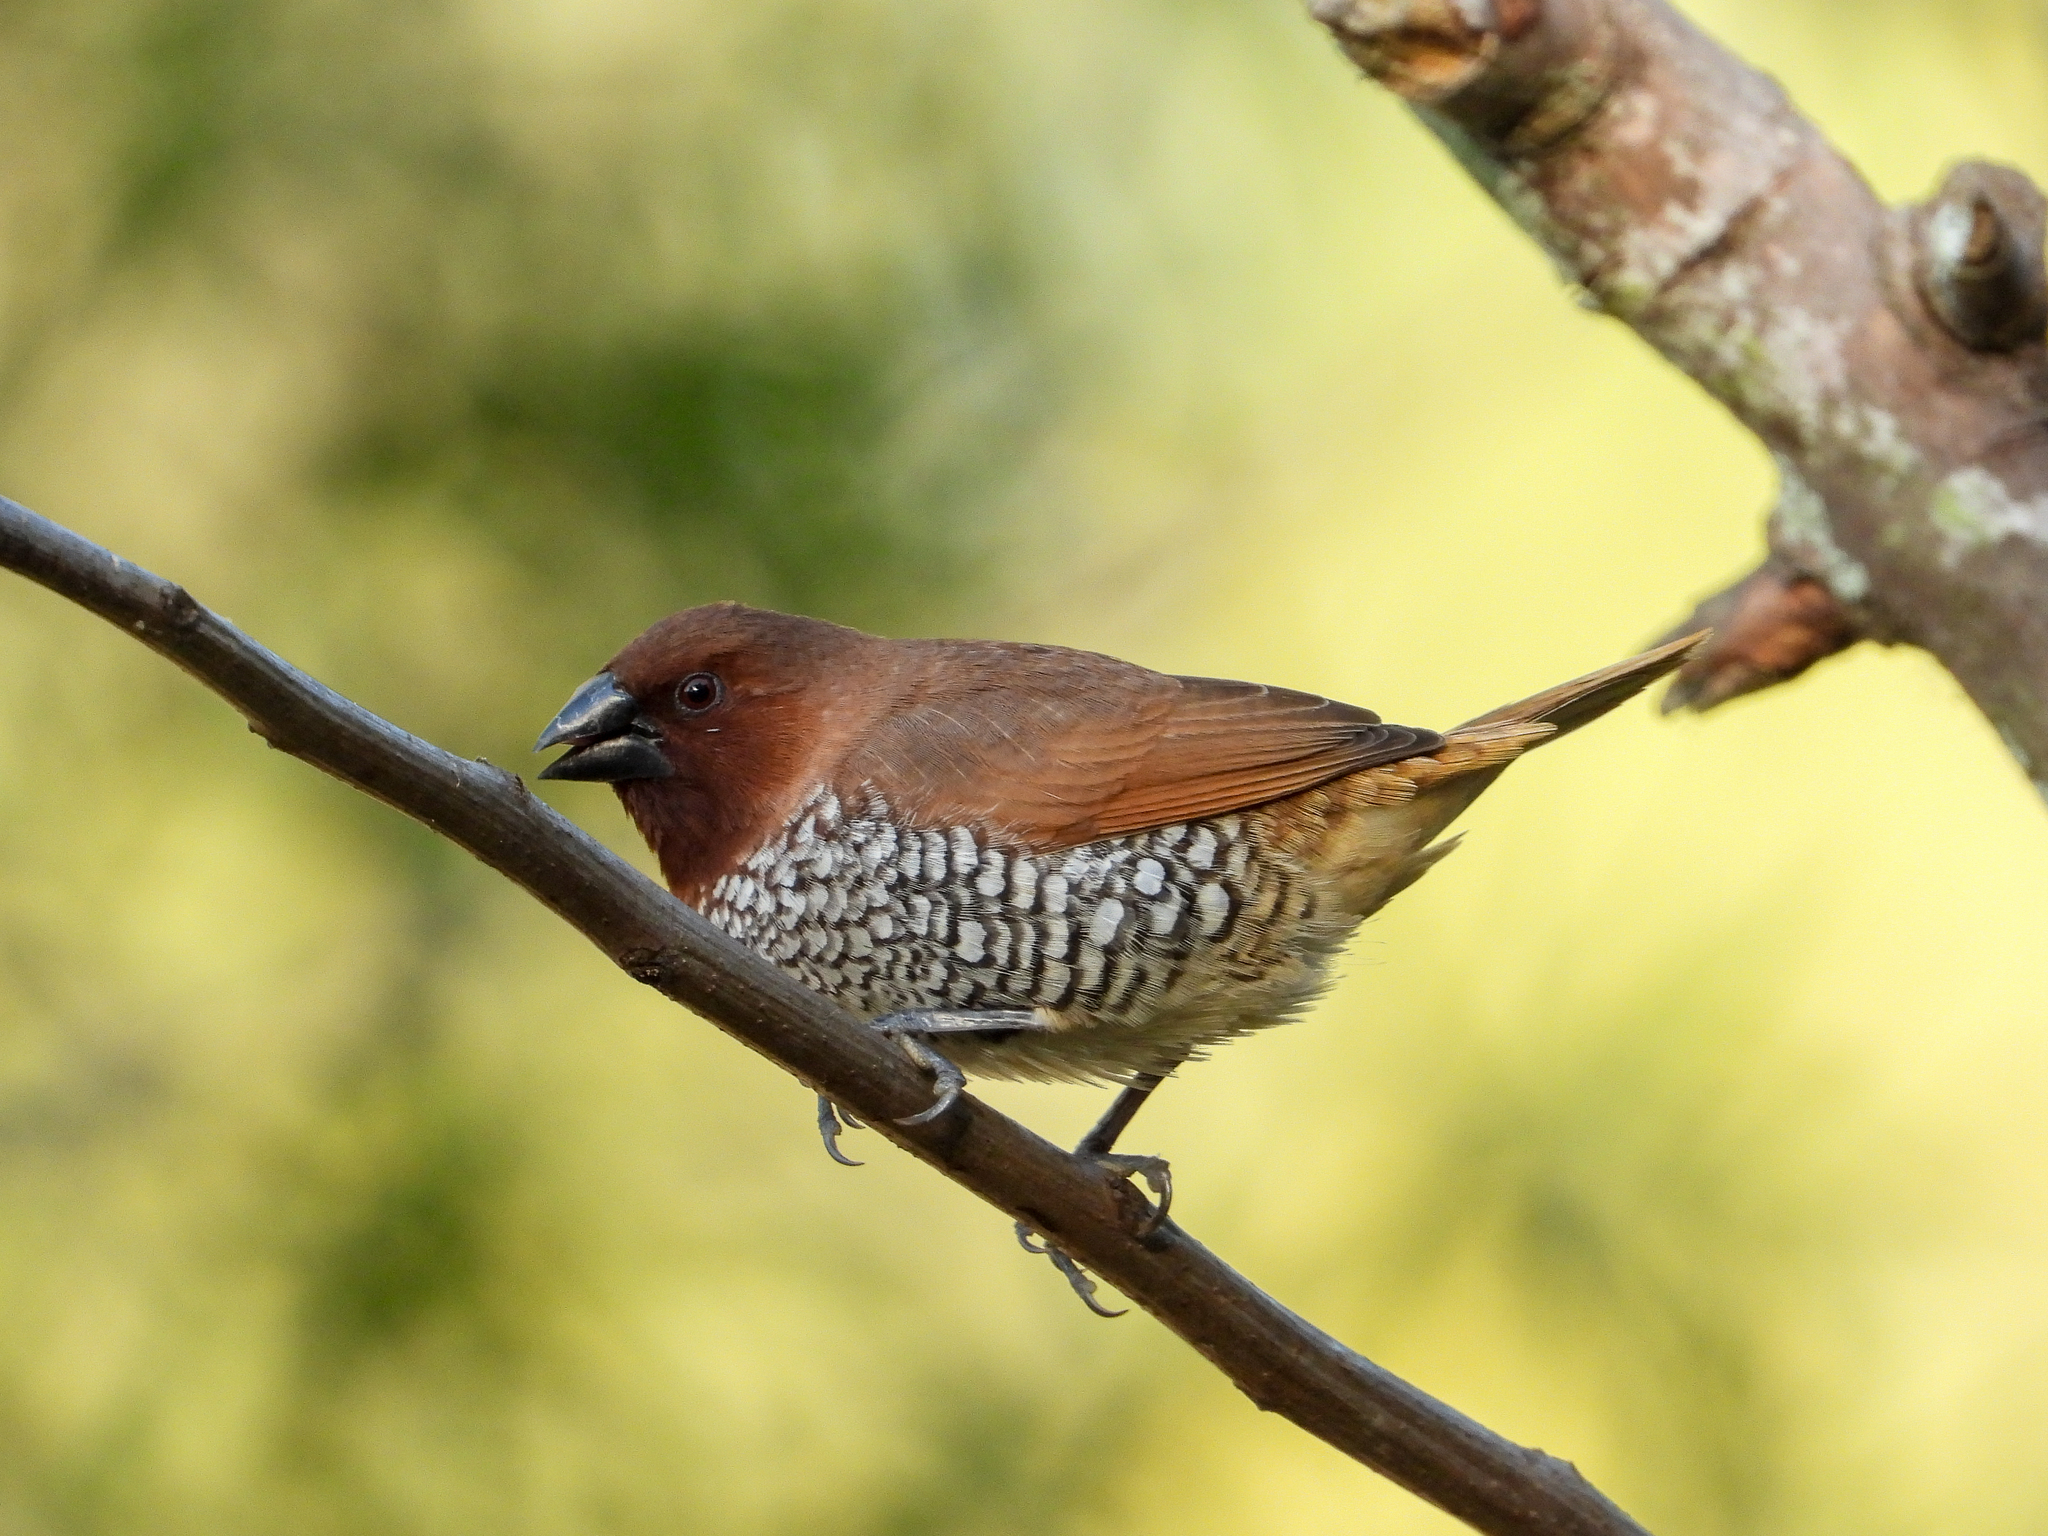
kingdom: Animalia
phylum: Chordata
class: Aves
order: Passeriformes
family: Estrildidae
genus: Lonchura
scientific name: Lonchura punctulata
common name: Scaly-breasted munia
